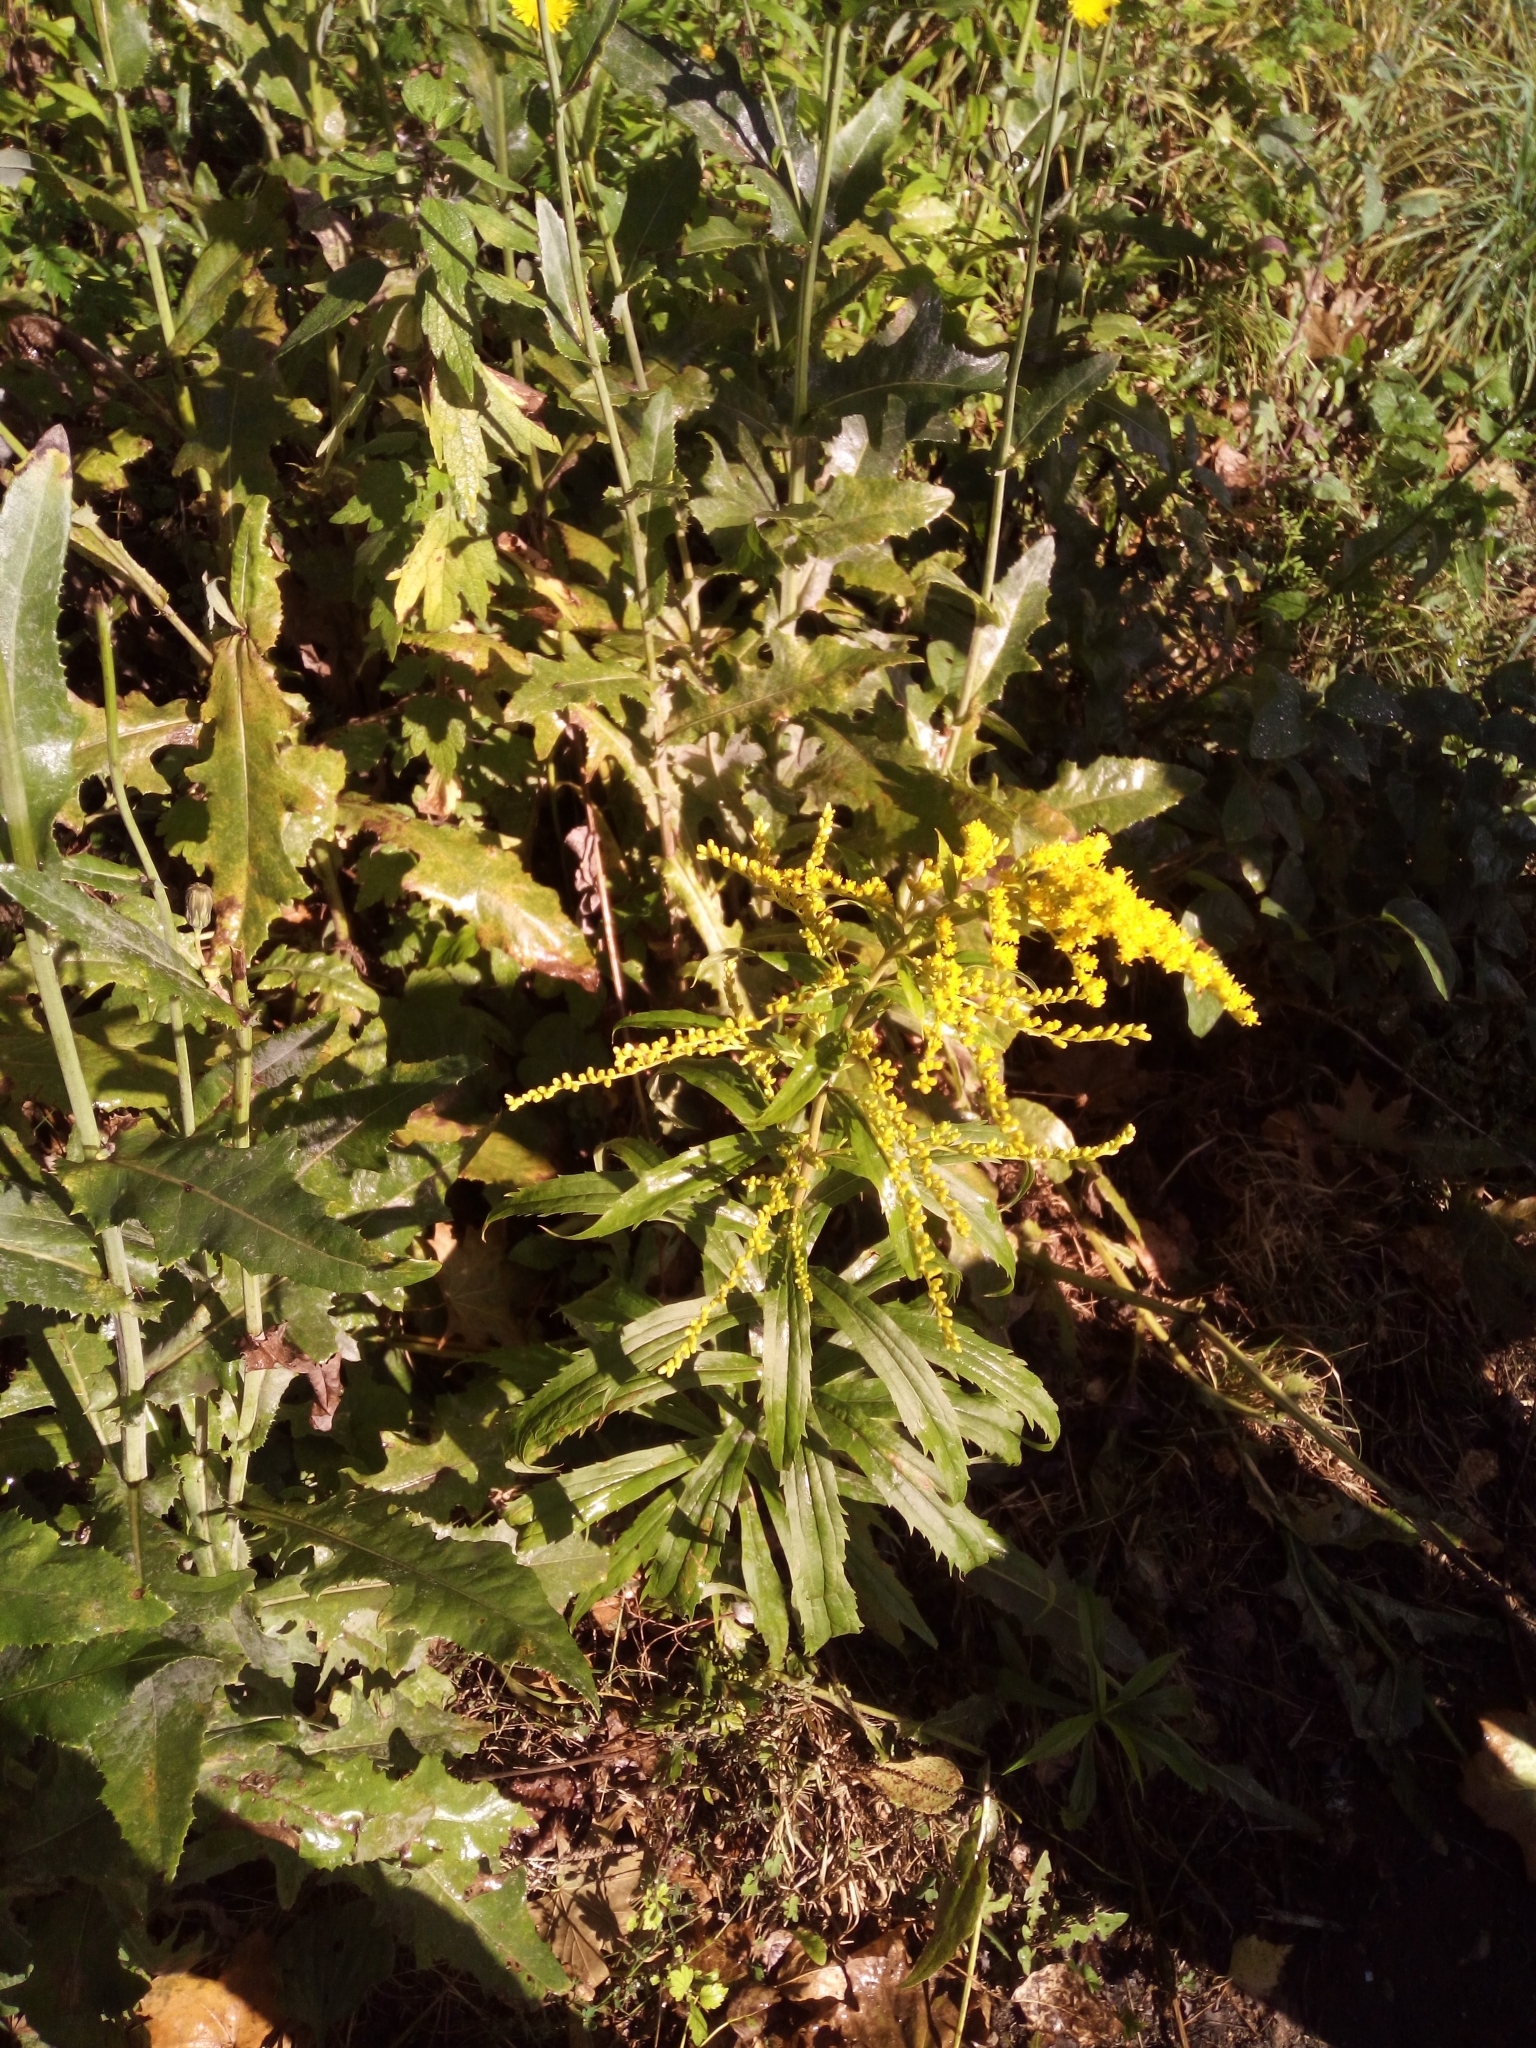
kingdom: Plantae
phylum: Tracheophyta
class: Magnoliopsida
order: Asterales
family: Asteraceae
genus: Solidago
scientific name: Solidago gigantea
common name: Giant goldenrod
